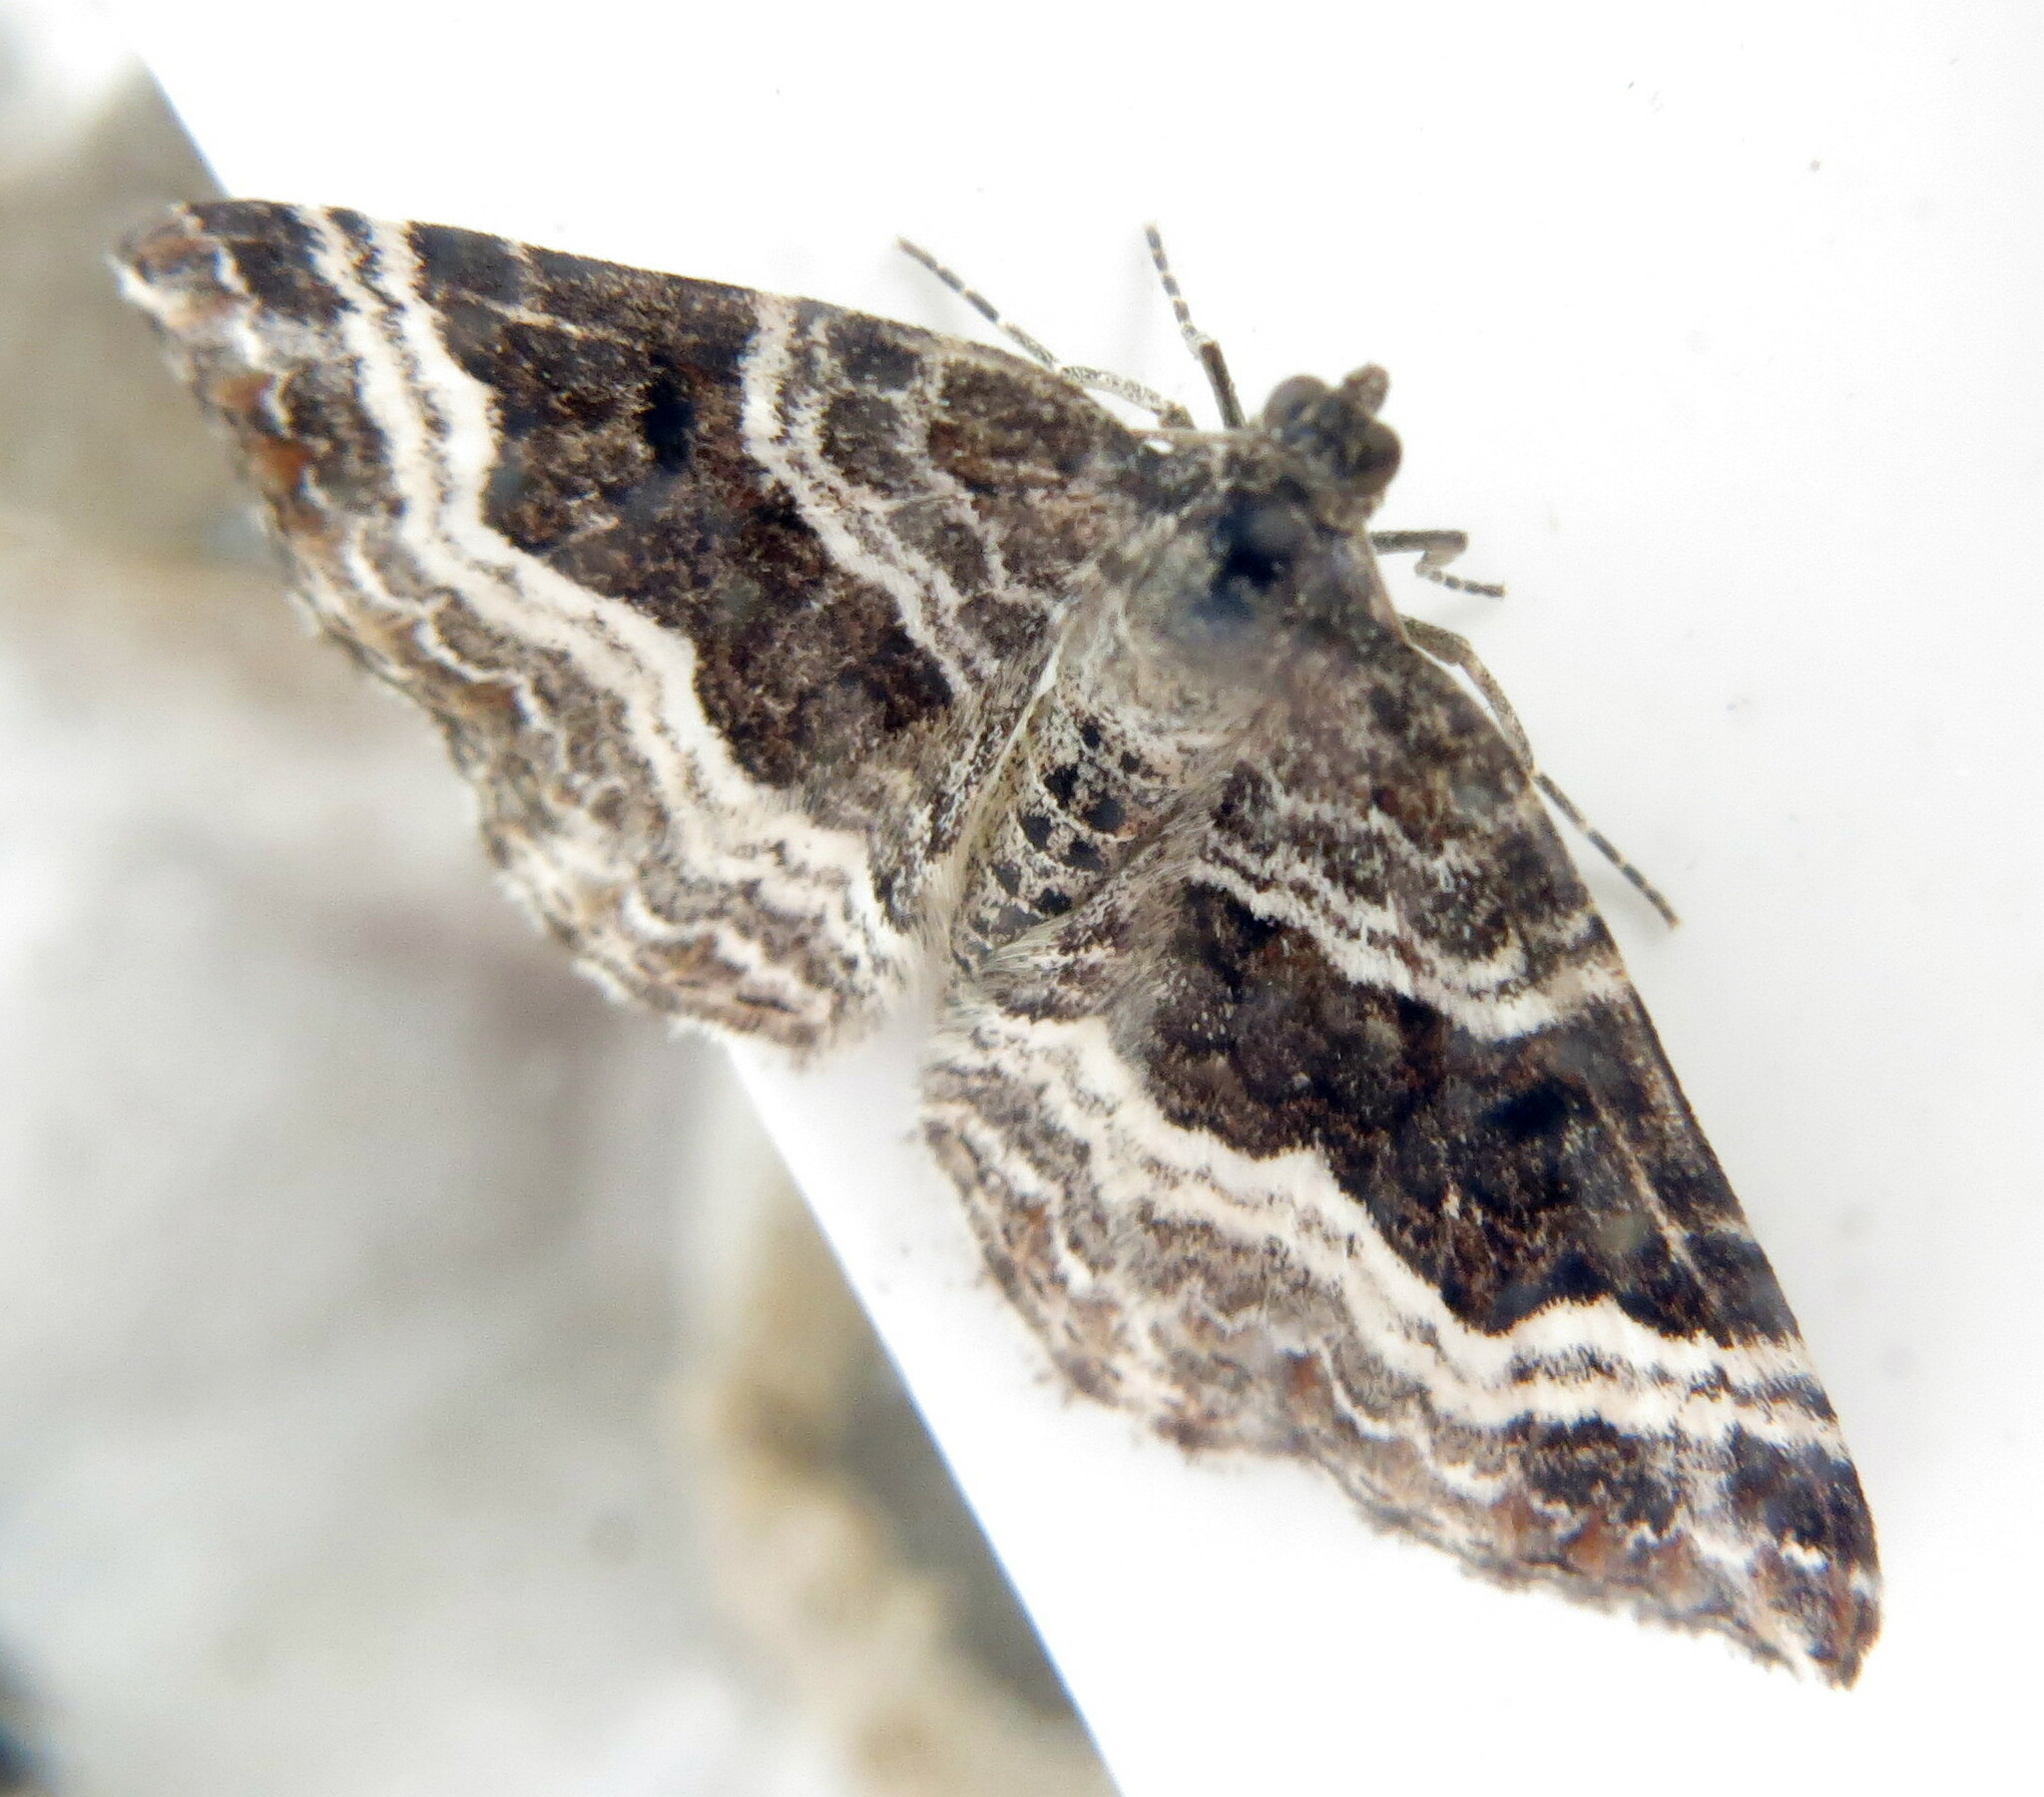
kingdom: Animalia
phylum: Arthropoda
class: Insecta
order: Lepidoptera
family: Geometridae
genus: Epirrhoe
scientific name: Epirrhoe alternata
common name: Common carpet
